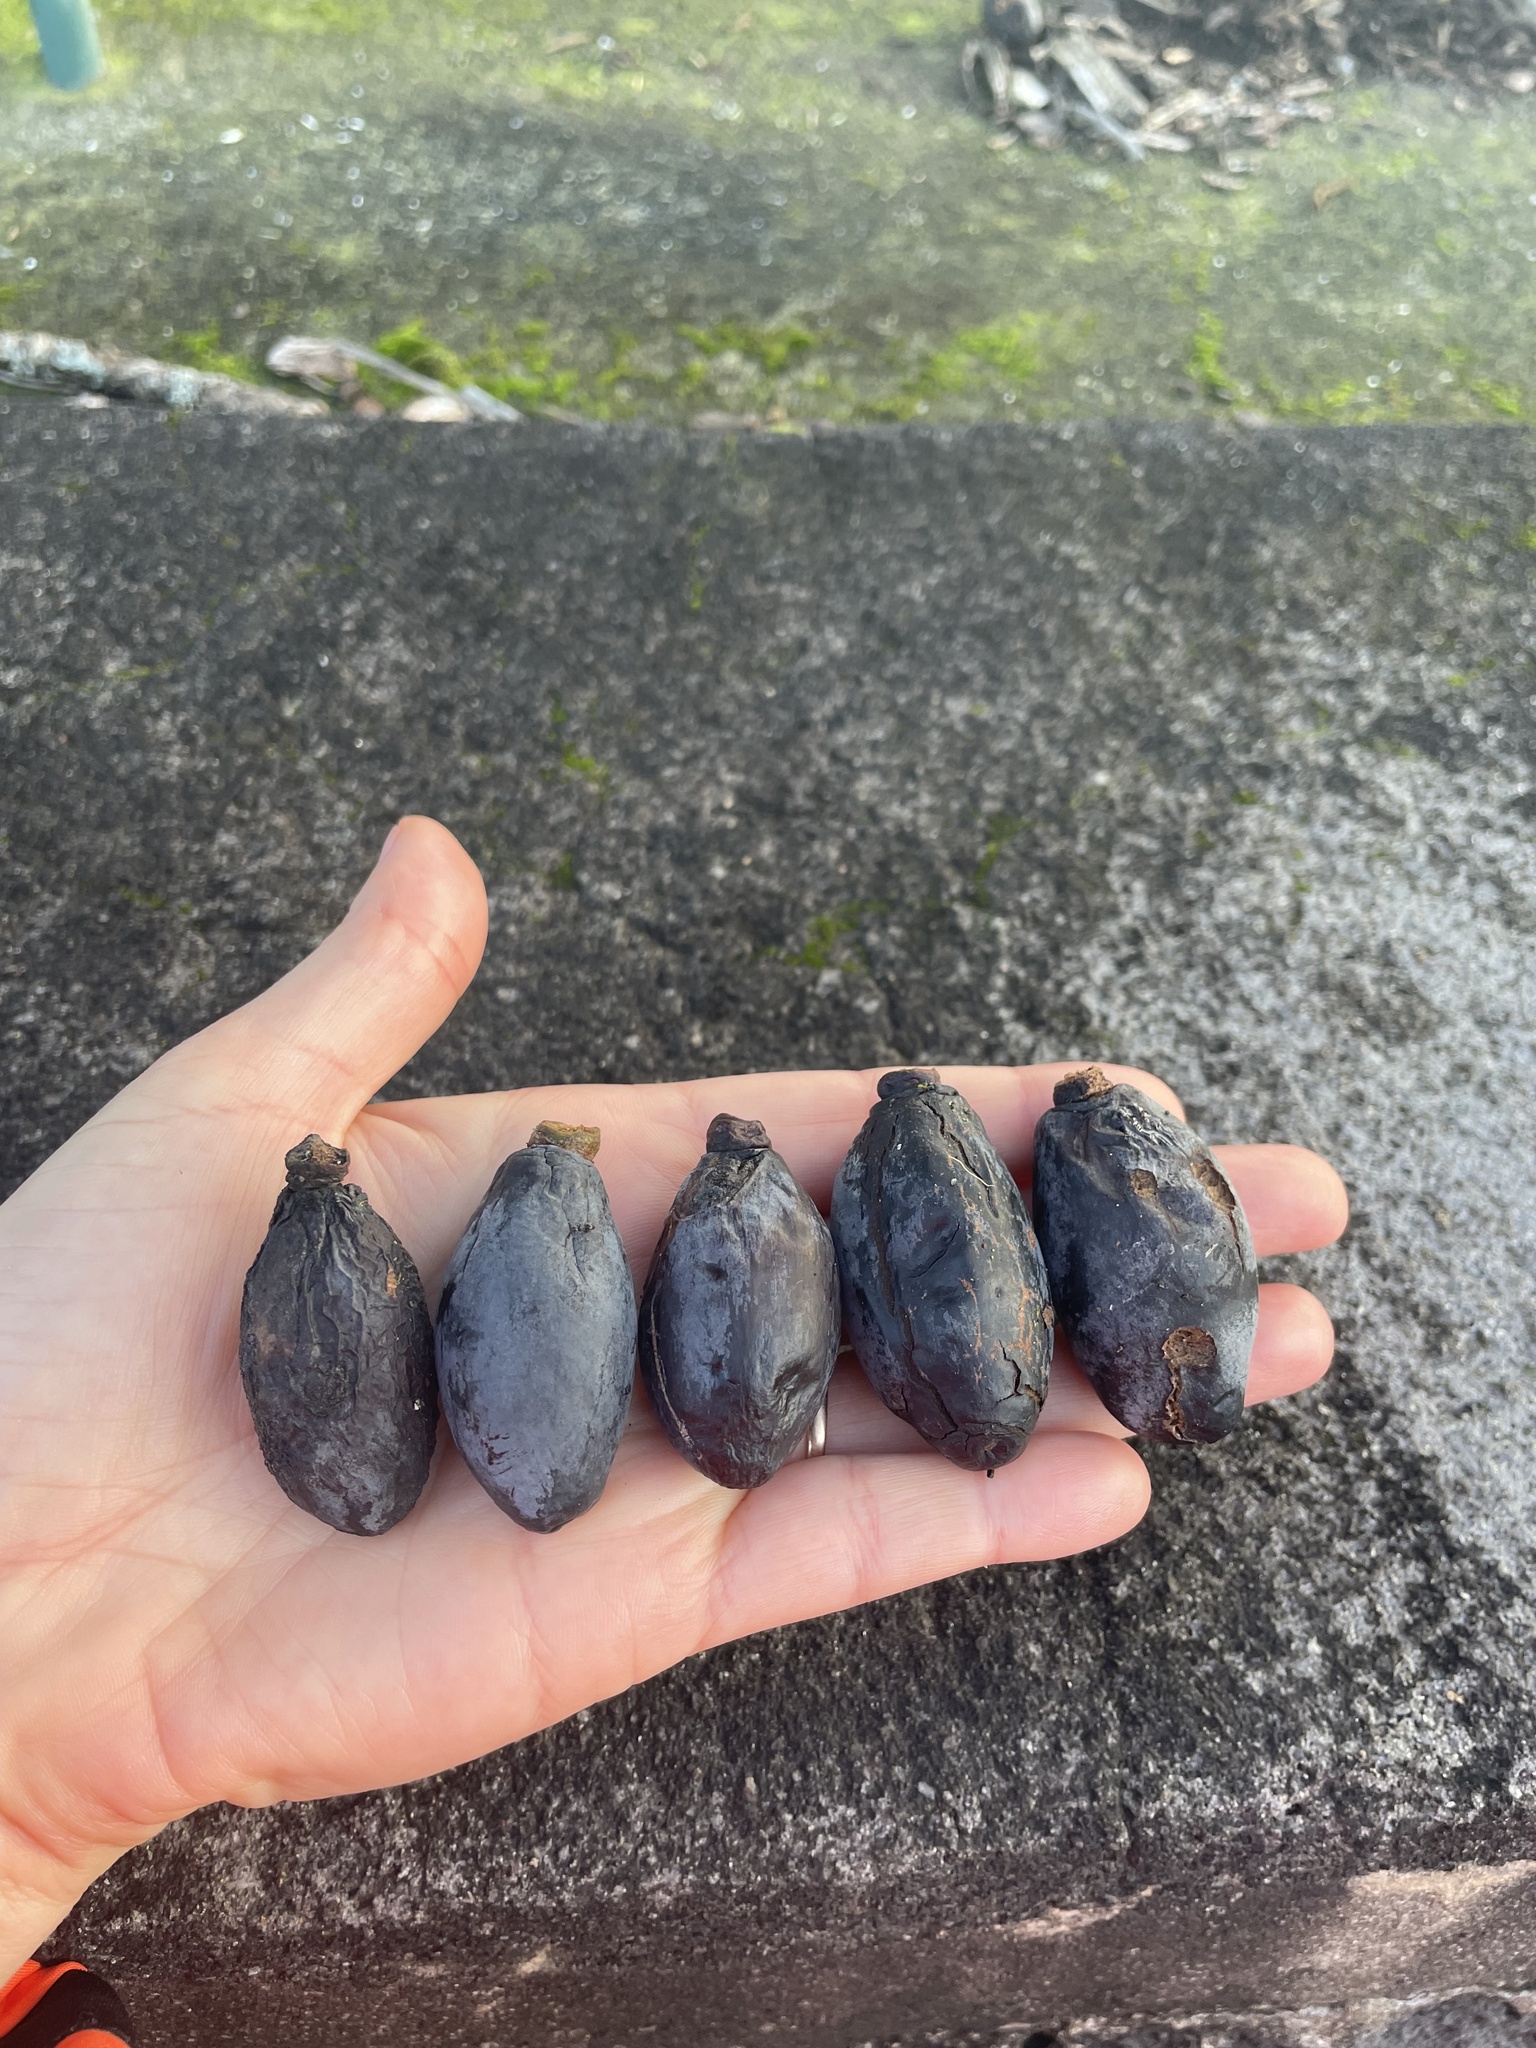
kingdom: Plantae
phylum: Tracheophyta
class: Magnoliopsida
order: Laurales
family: Lauraceae
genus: Beilschmiedia
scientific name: Beilschmiedia tarairi
